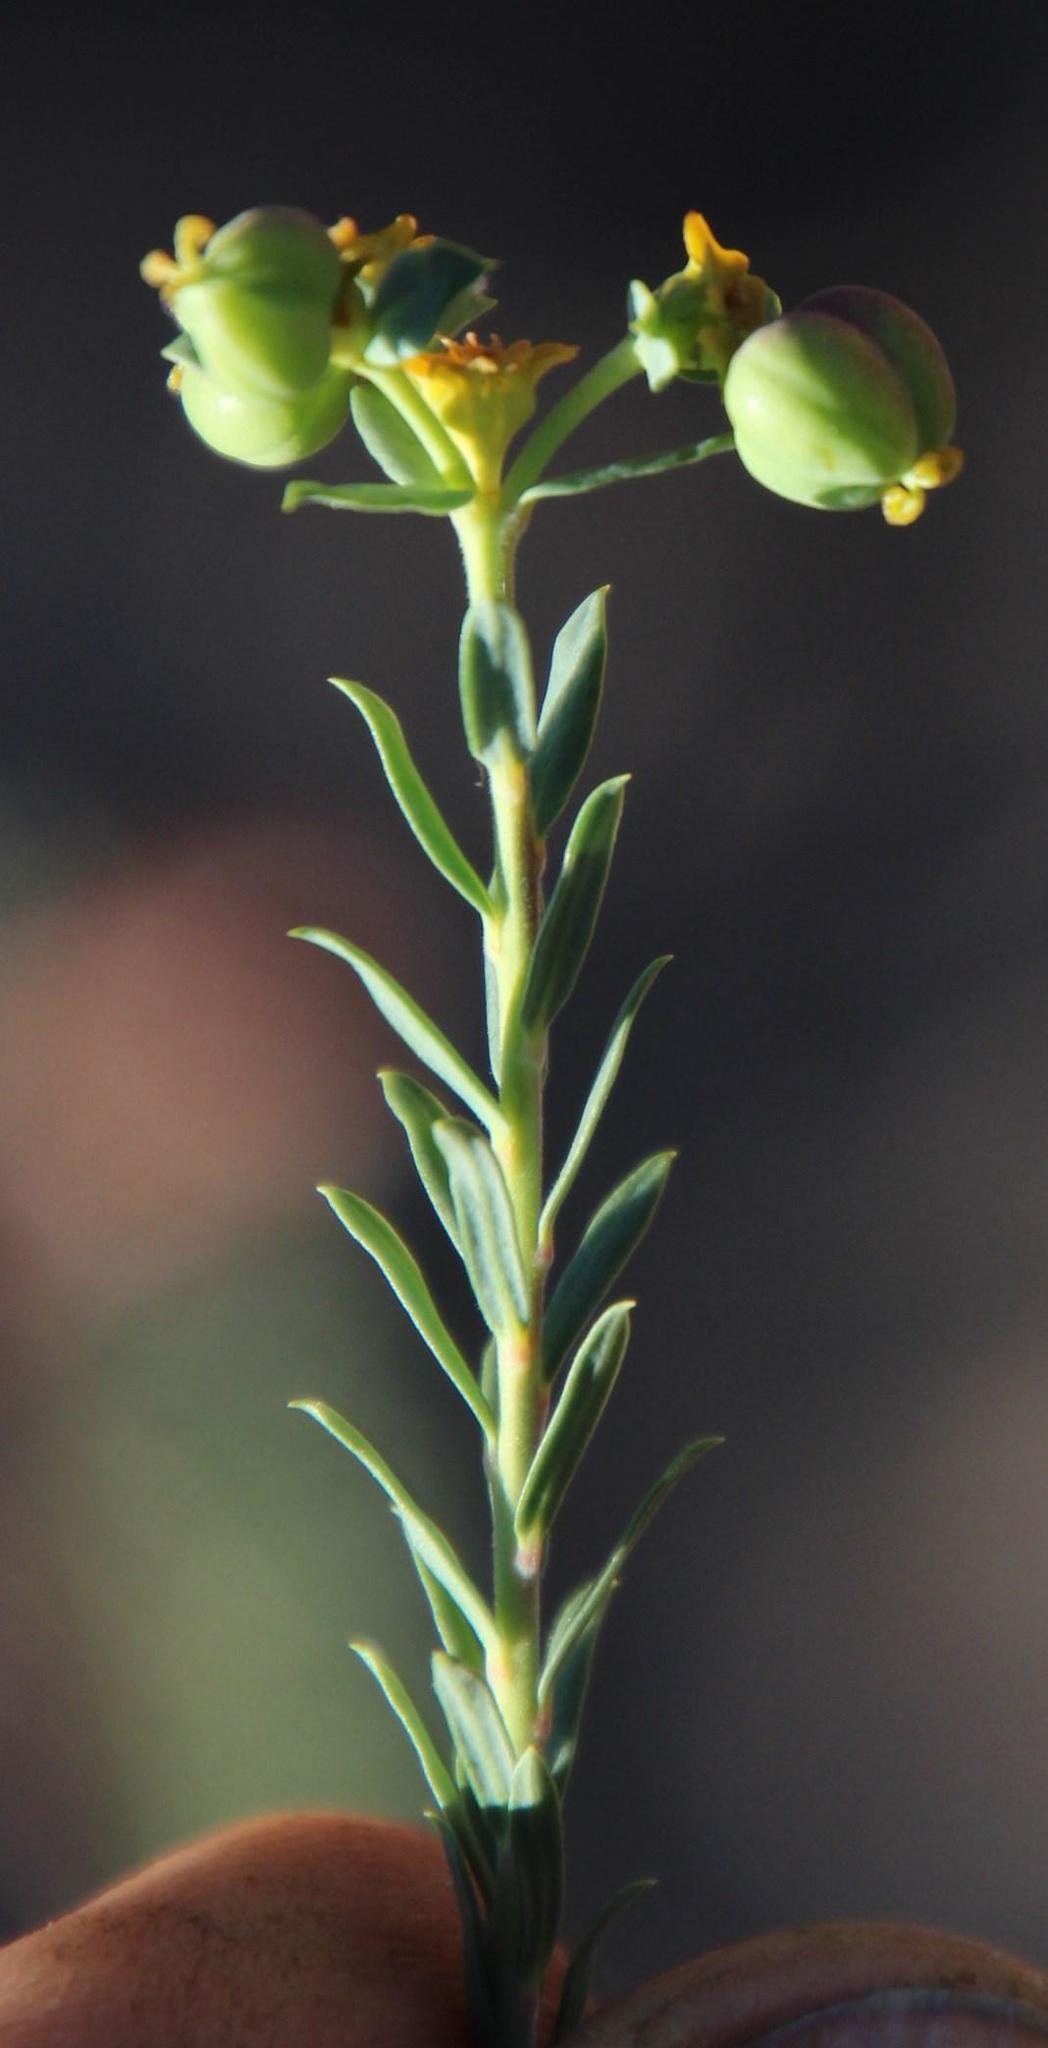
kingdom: Plantae
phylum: Tracheophyta
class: Magnoliopsida
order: Malpighiales
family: Euphorbiaceae
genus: Euphorbia
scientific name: Euphorbia genistoides
